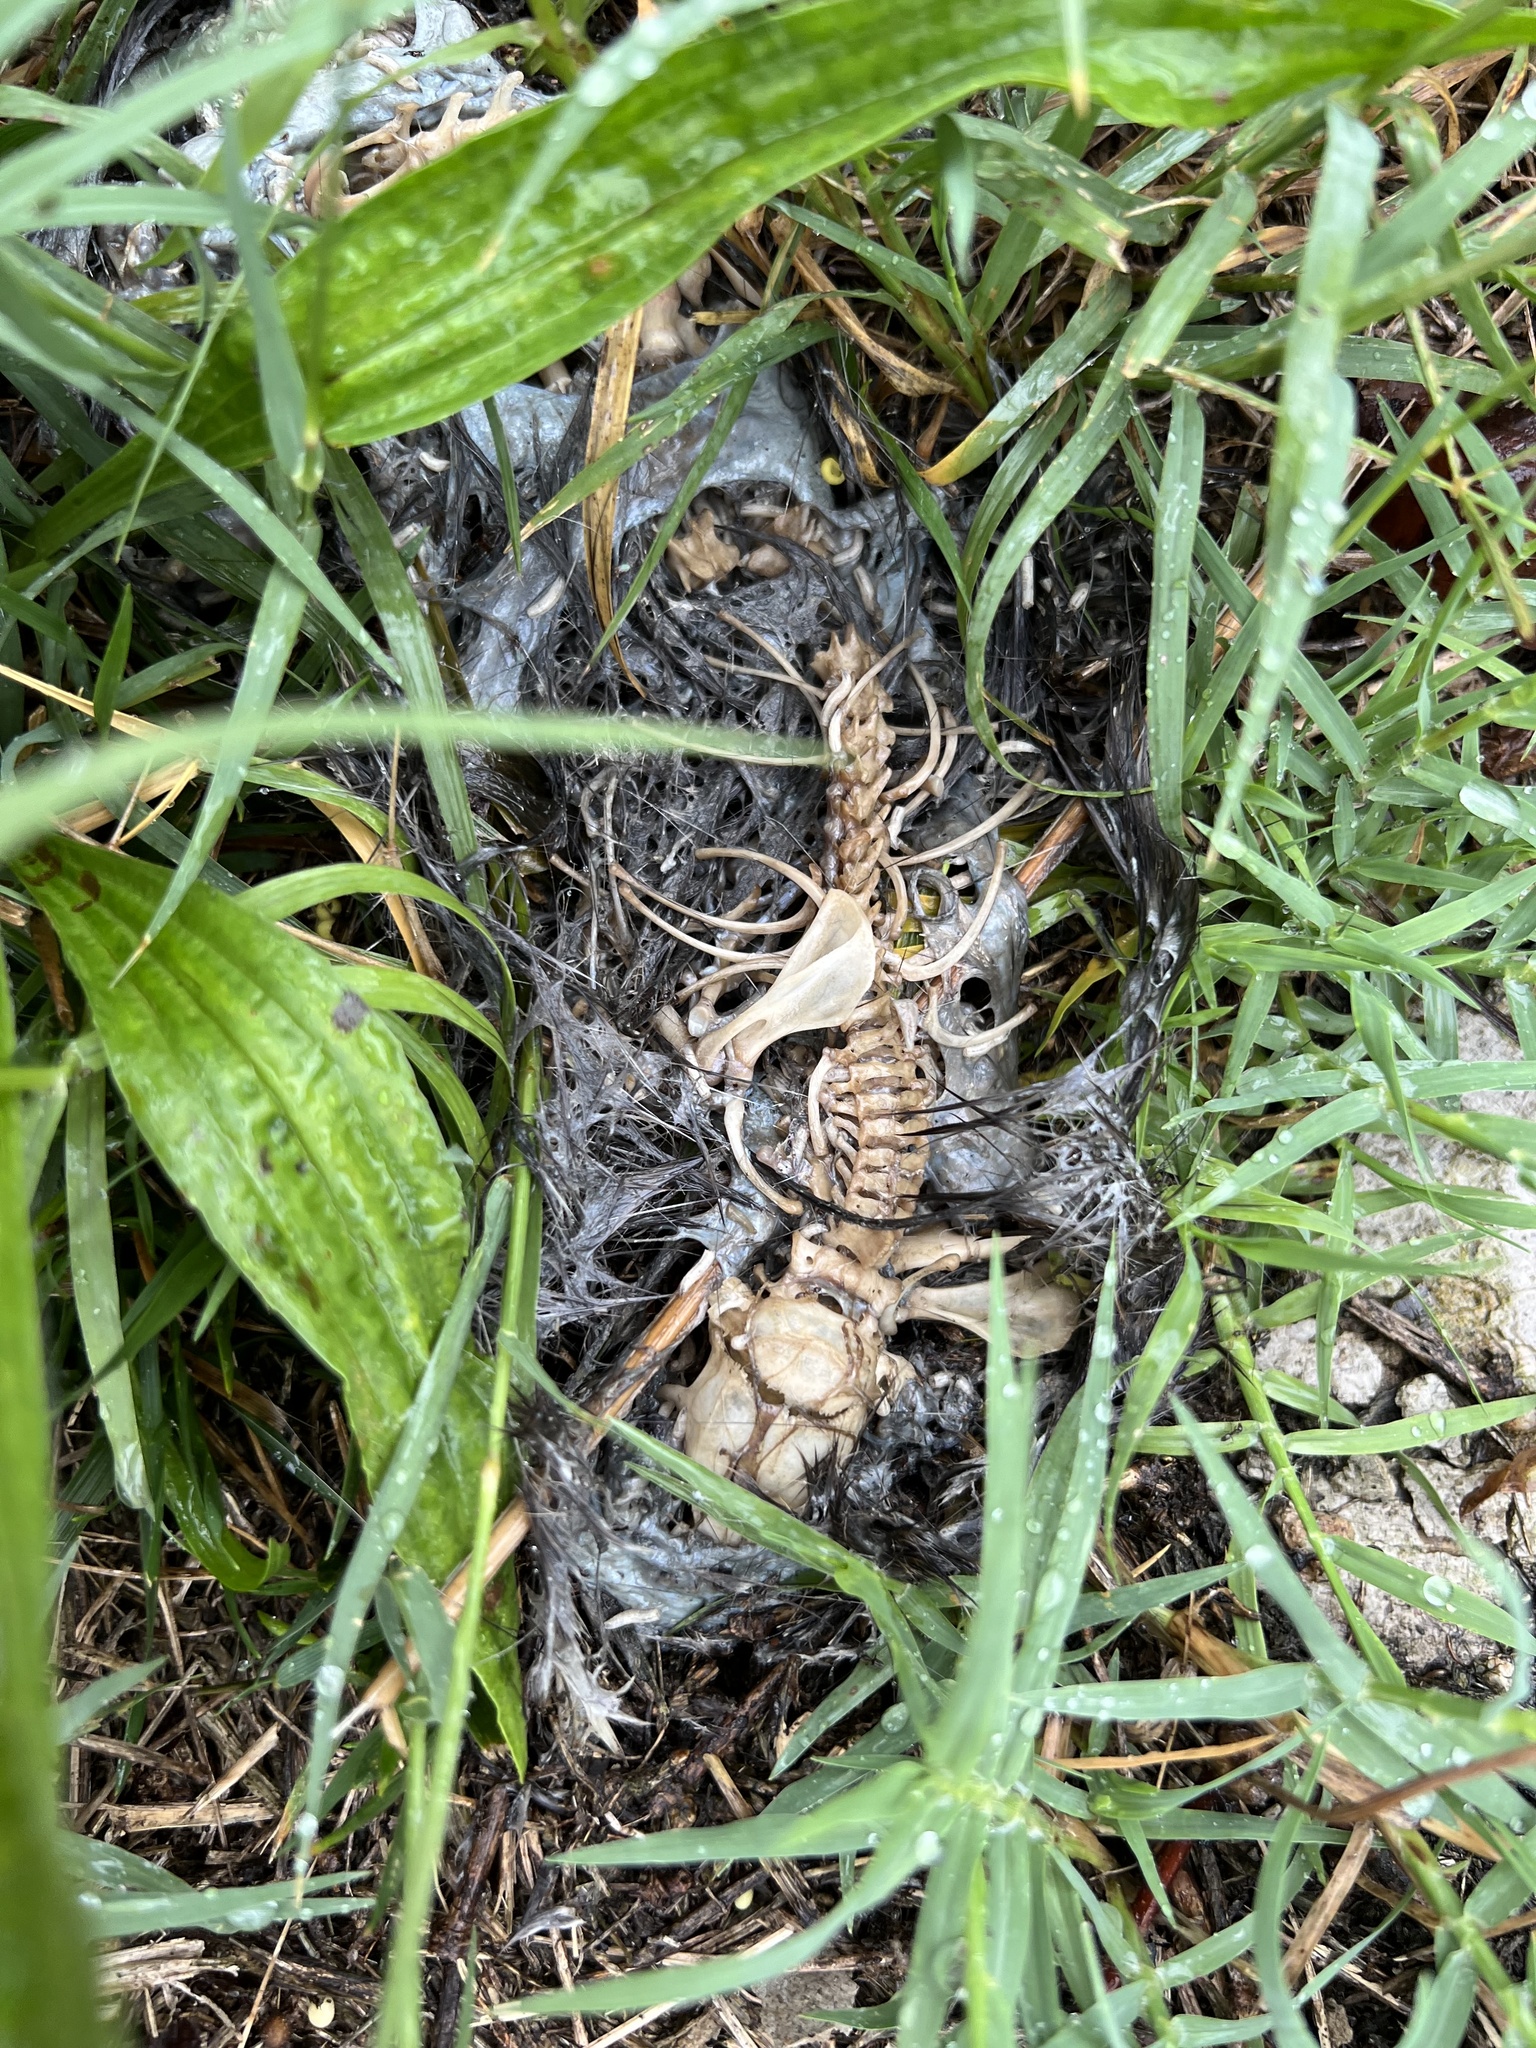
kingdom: Animalia
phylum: Chordata
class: Mammalia
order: Rodentia
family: Muridae
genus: Rattus
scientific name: Rattus norvegicus
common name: Brown rat
